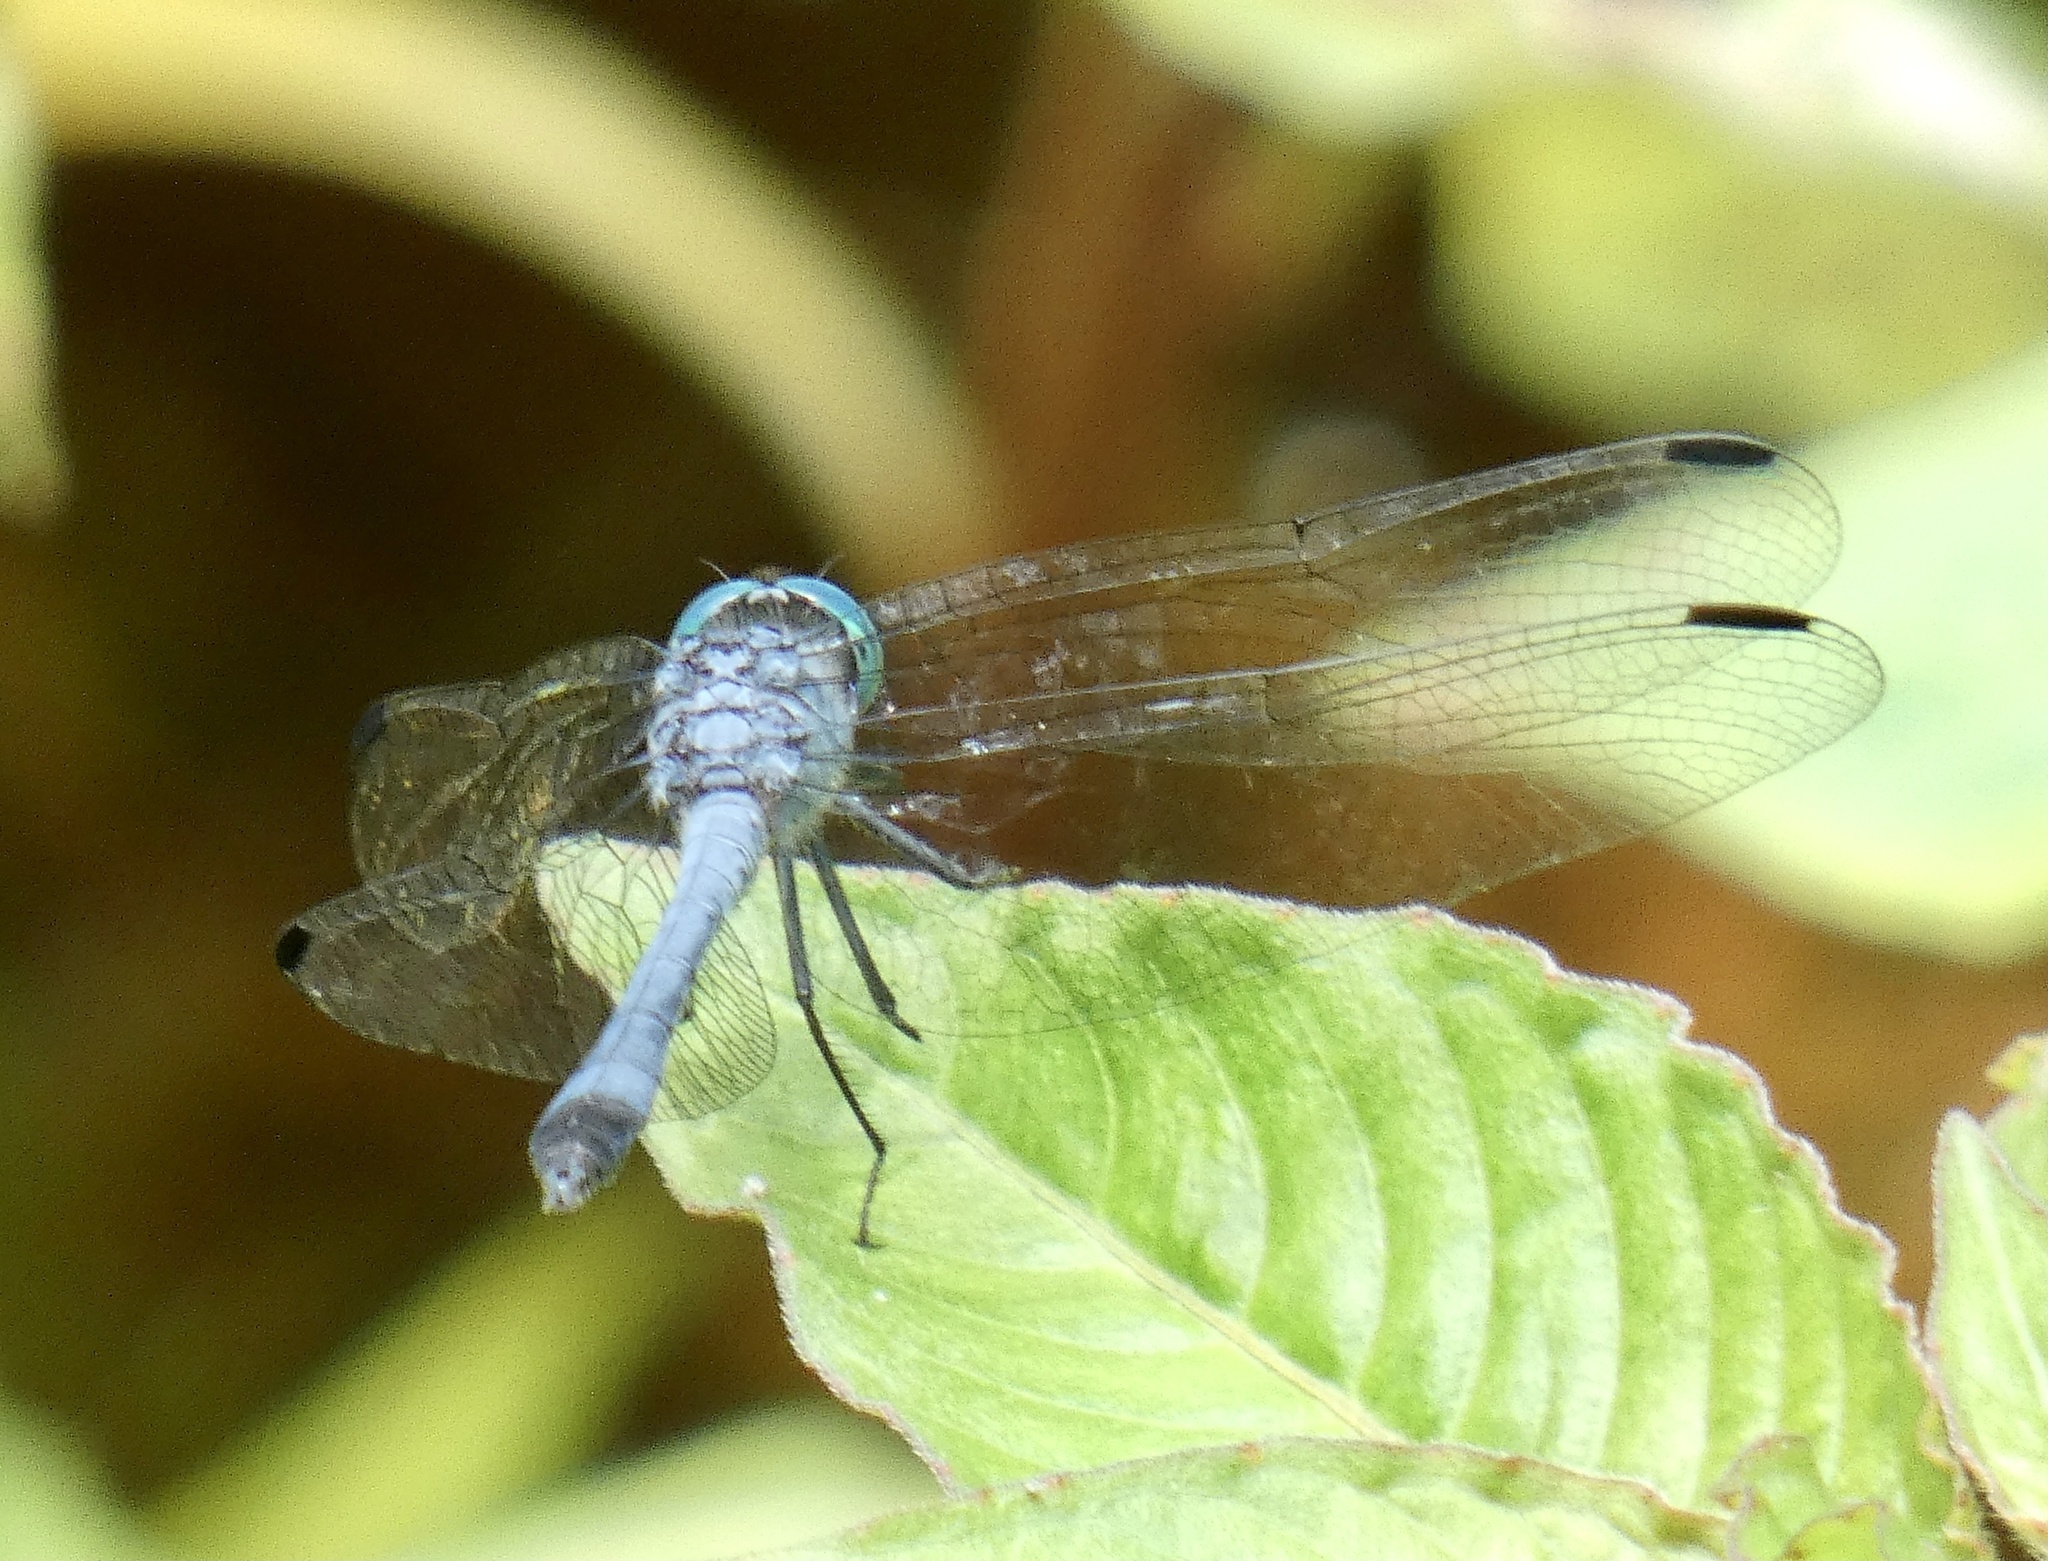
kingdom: Animalia
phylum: Arthropoda
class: Insecta
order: Odonata
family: Libellulidae
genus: Micrathyria
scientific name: Micrathyria athenais
